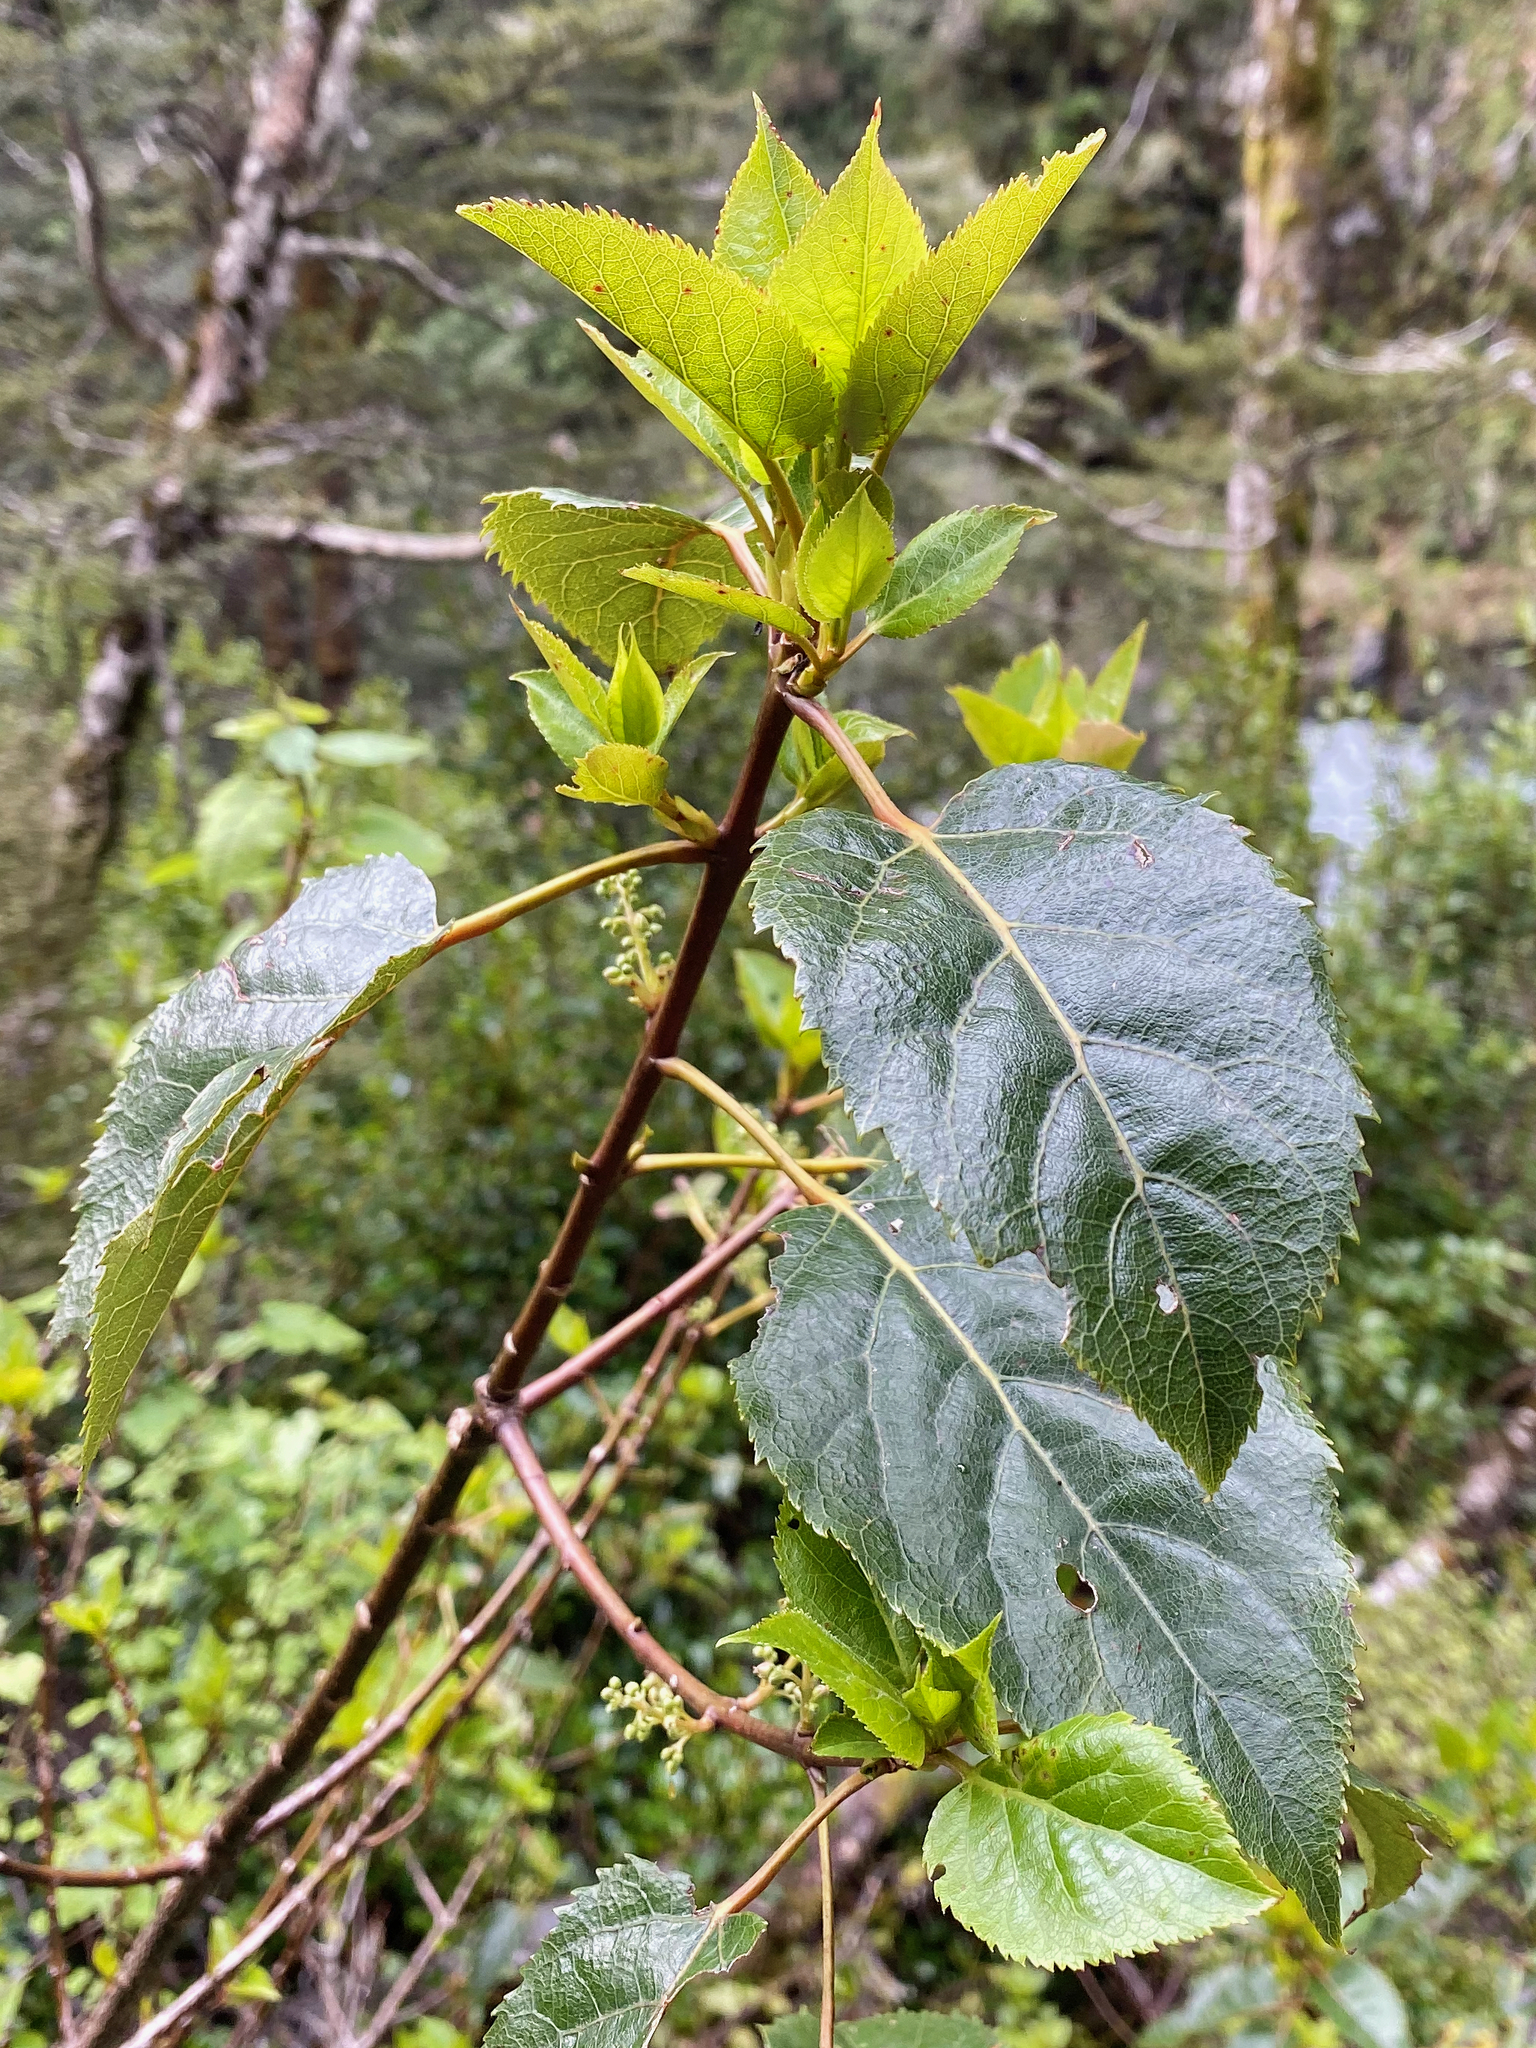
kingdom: Plantae
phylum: Tracheophyta
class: Magnoliopsida
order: Oxalidales
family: Elaeocarpaceae
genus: Aristotelia
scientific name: Aristotelia serrata
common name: New zealand wineberry
